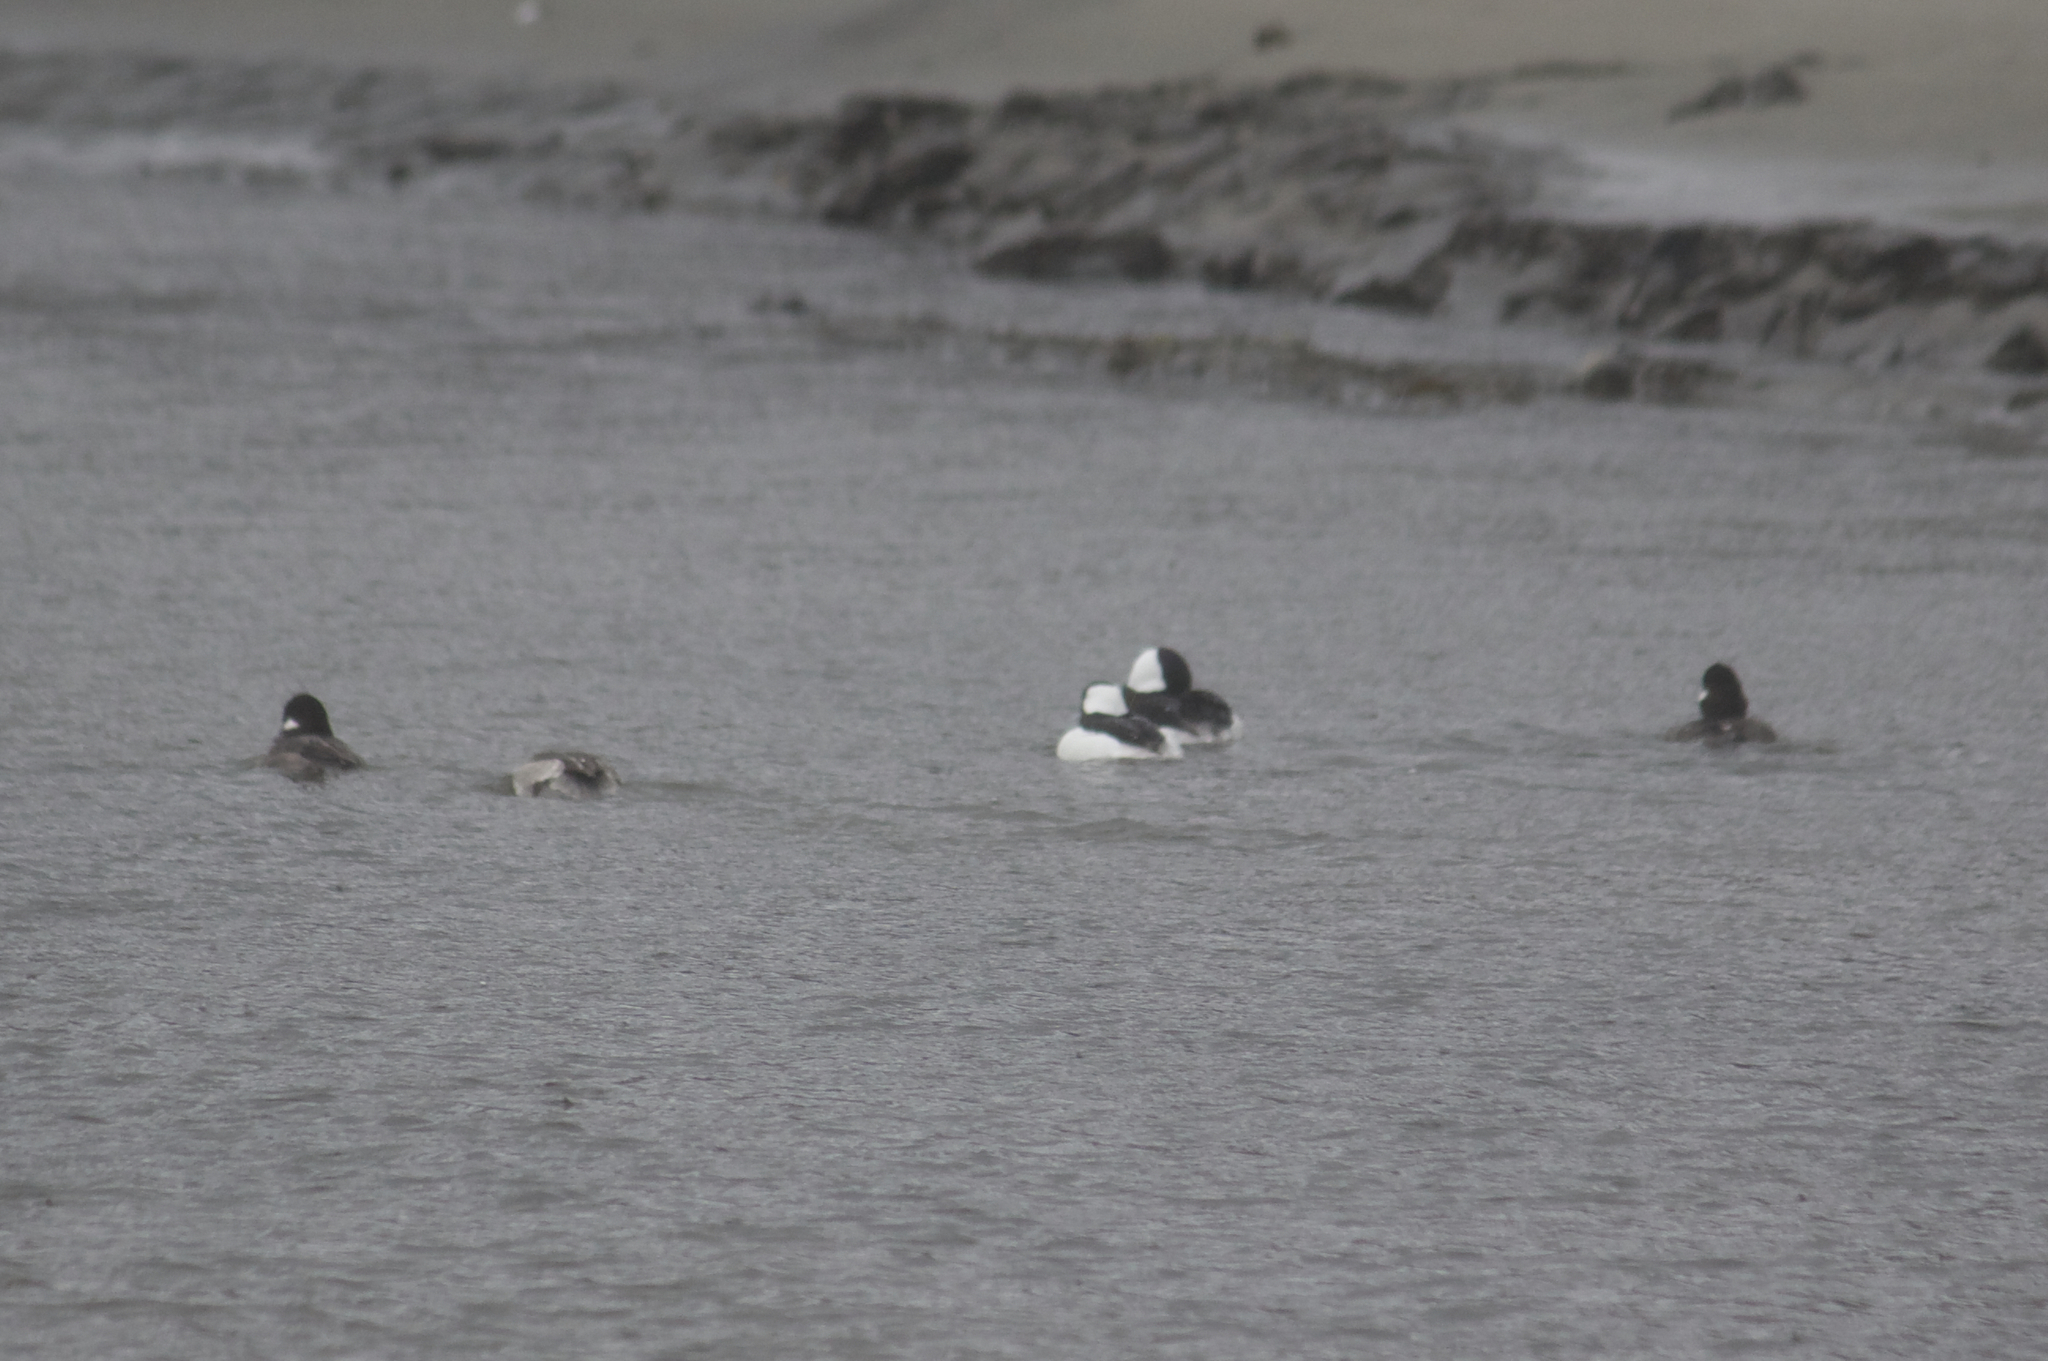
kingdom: Animalia
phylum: Chordata
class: Aves
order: Anseriformes
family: Anatidae
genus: Bucephala
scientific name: Bucephala albeola
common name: Bufflehead
